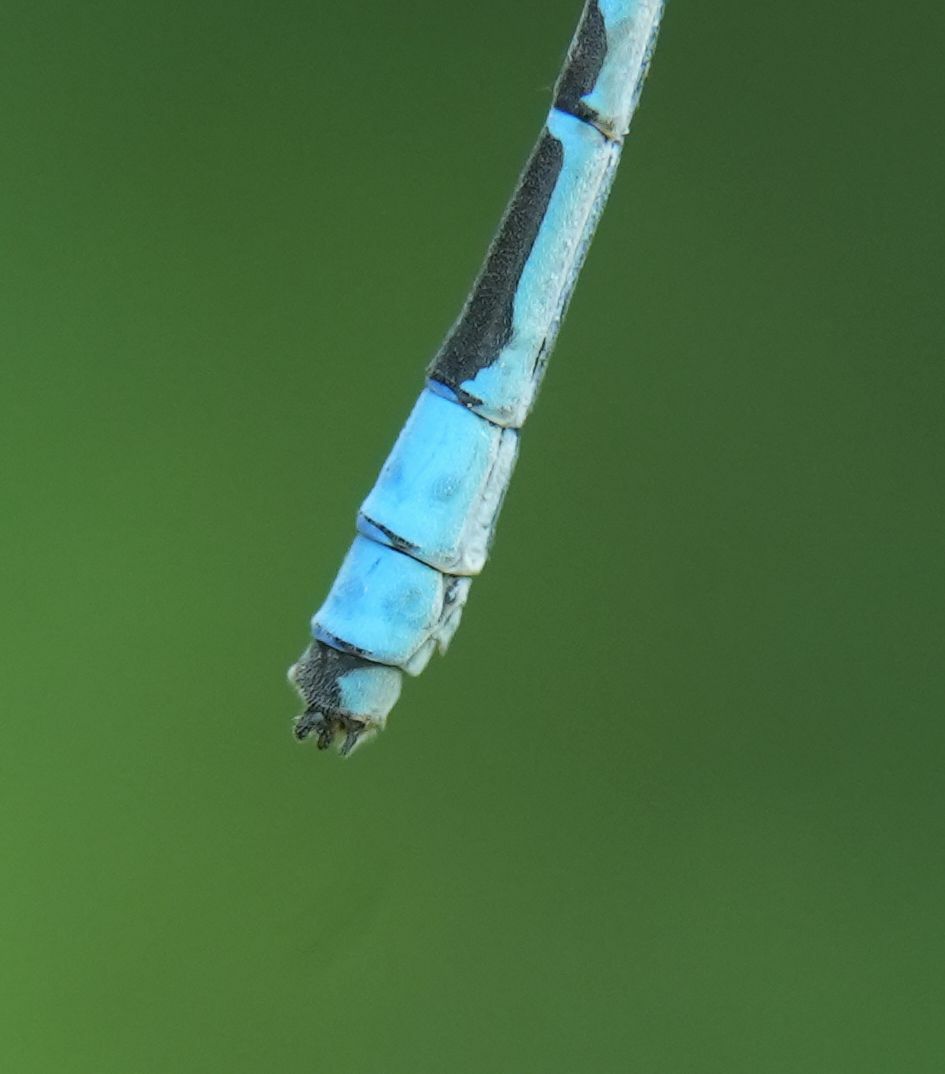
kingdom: Animalia
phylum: Arthropoda
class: Insecta
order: Odonata
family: Coenagrionidae
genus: Enallagma
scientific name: Enallagma ebrium
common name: Marsh bluet
